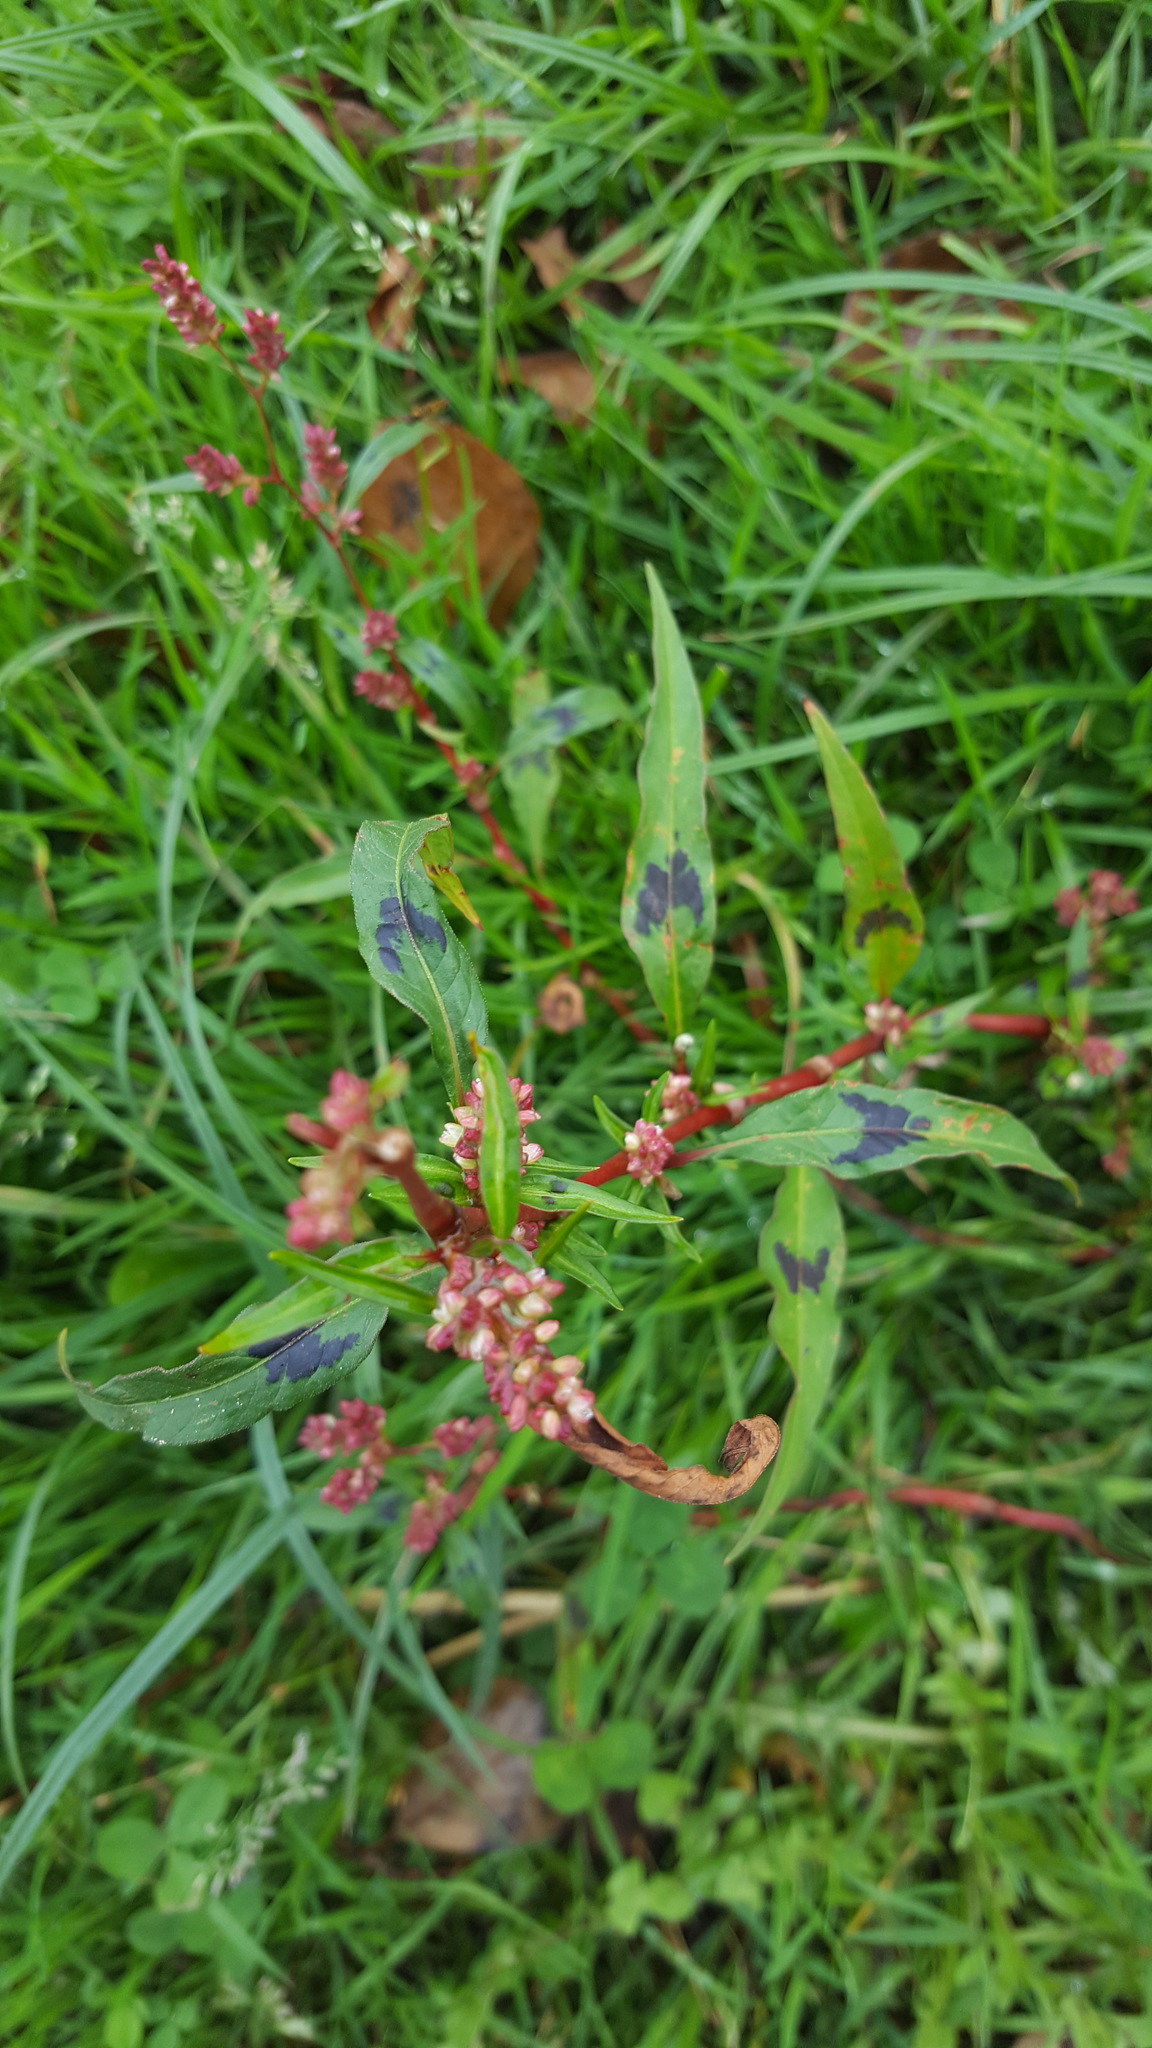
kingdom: Plantae
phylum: Tracheophyta
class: Magnoliopsida
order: Caryophyllales
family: Polygonaceae
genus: Persicaria
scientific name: Persicaria maculosa
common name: Redshank
